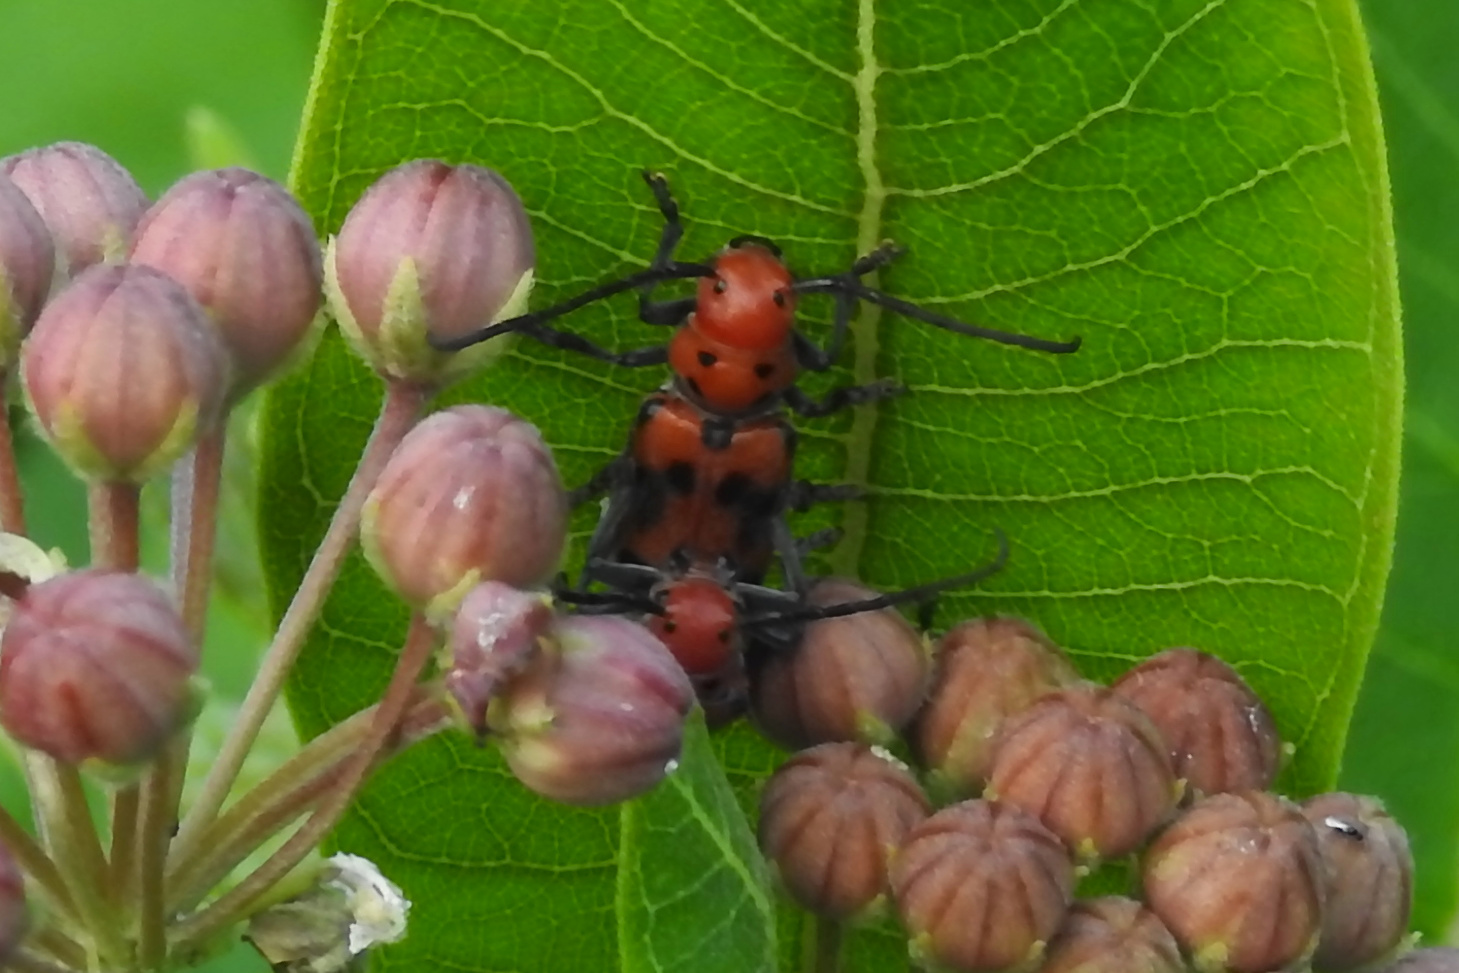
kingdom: Animalia
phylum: Arthropoda
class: Insecta
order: Coleoptera
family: Cerambycidae
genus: Tetraopes
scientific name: Tetraopes tetrophthalmus
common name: Red milkweed beetle
